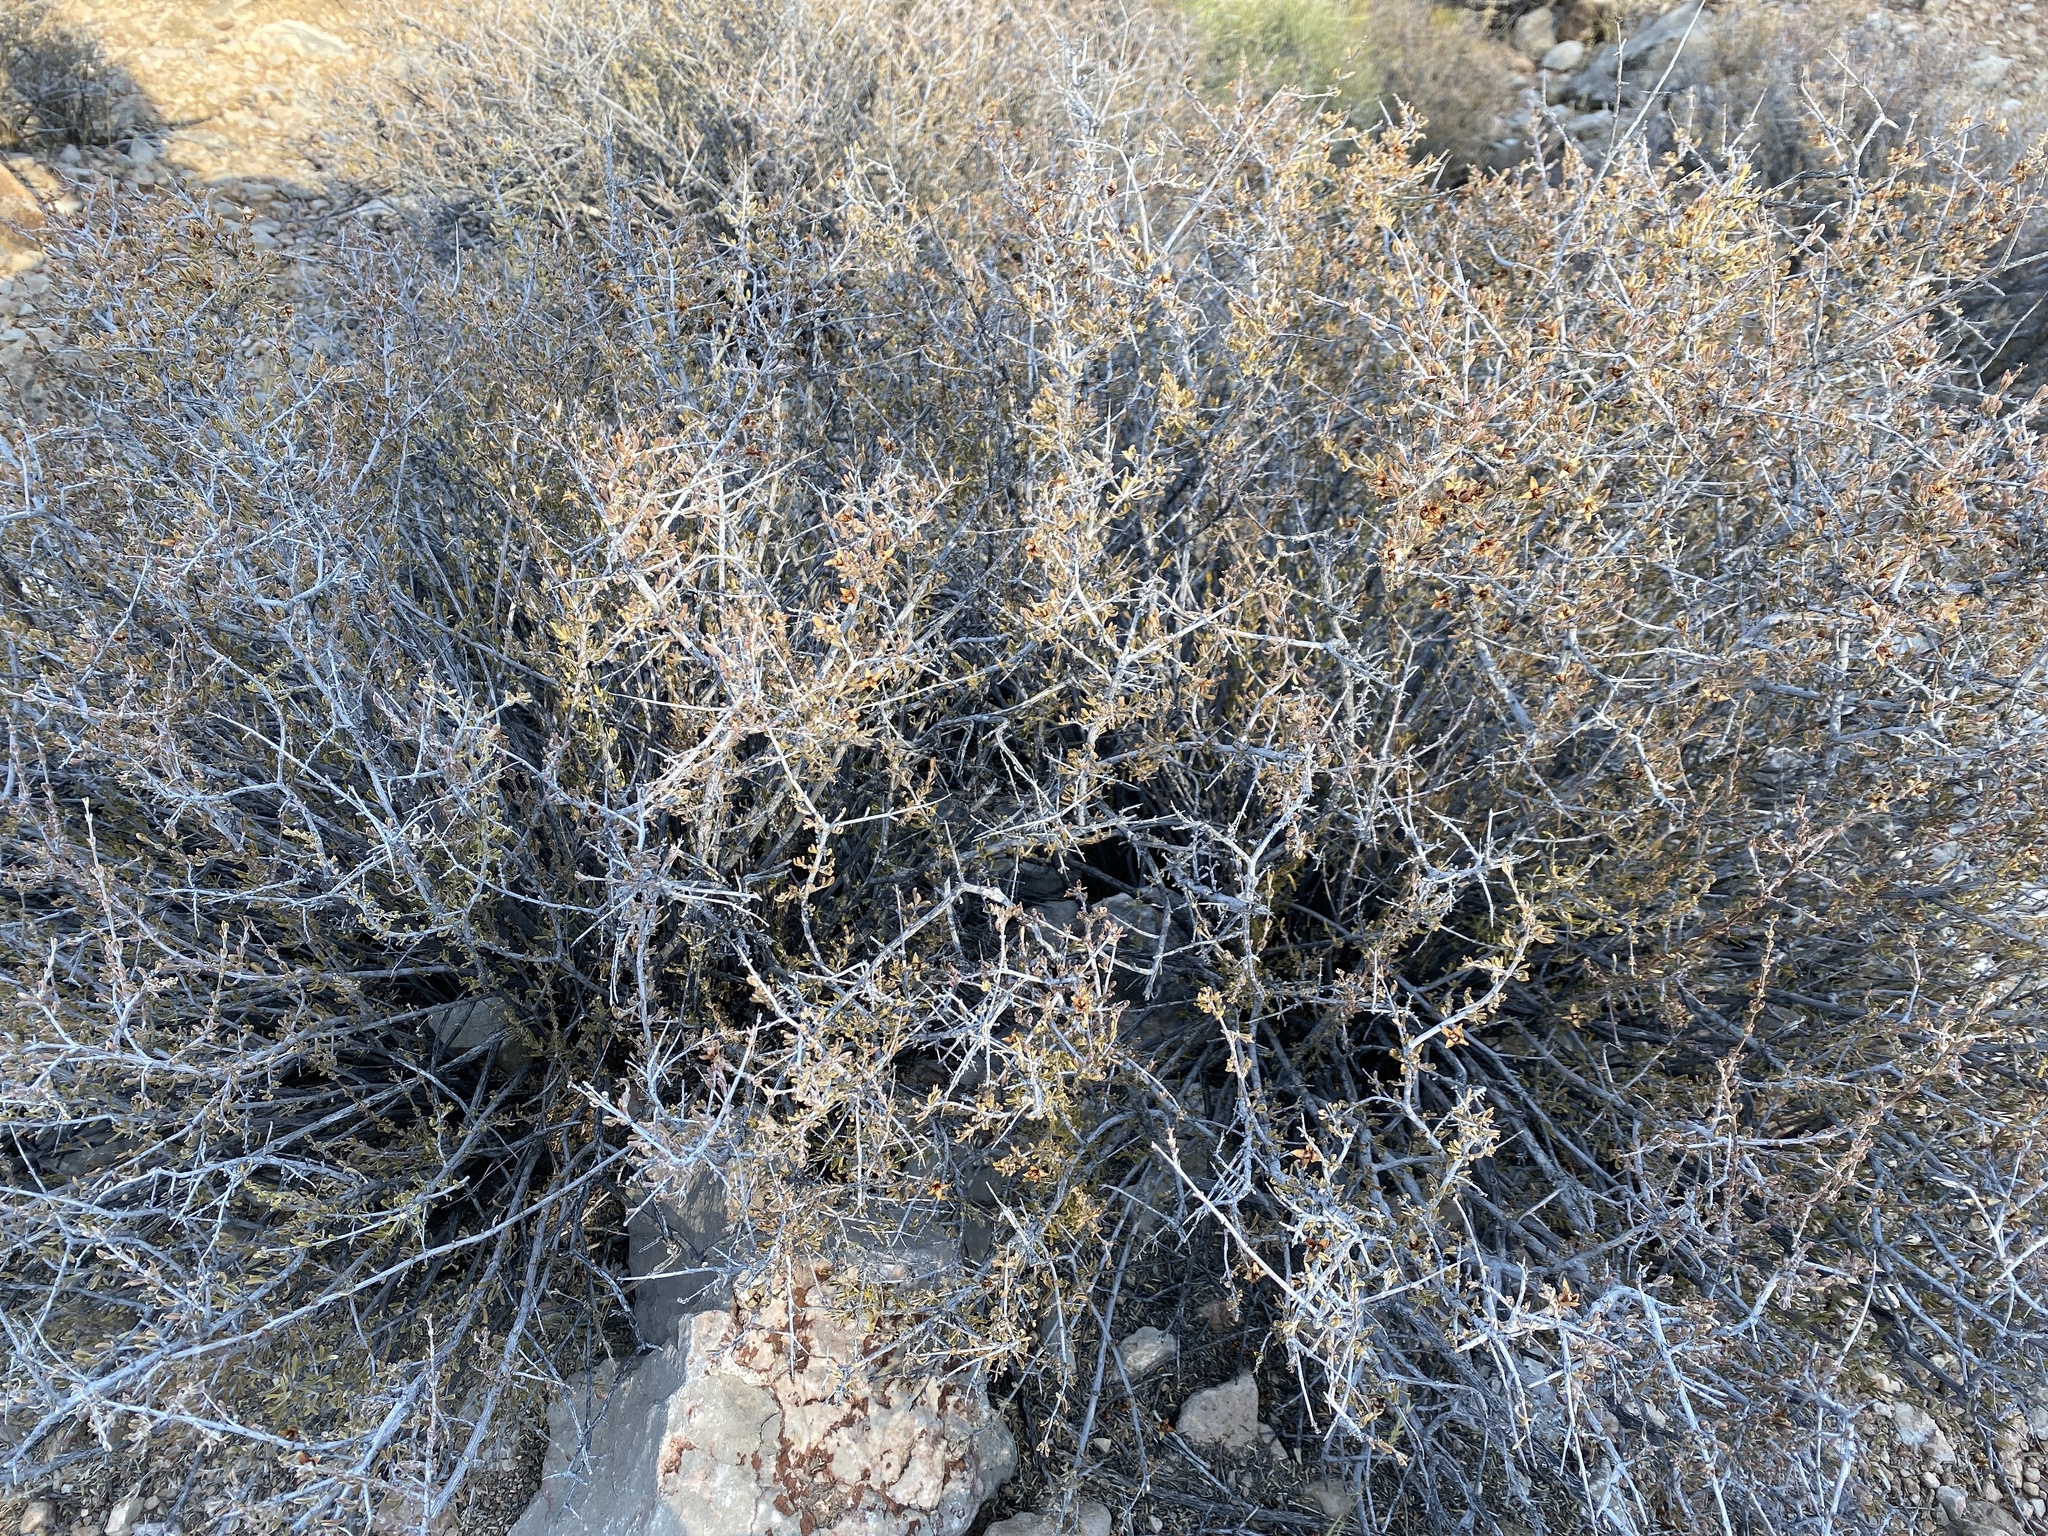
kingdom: Plantae
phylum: Tracheophyta
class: Magnoliopsida
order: Rosales
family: Rosaceae
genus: Coleogyne
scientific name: Coleogyne ramosissima
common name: Blackbrush
